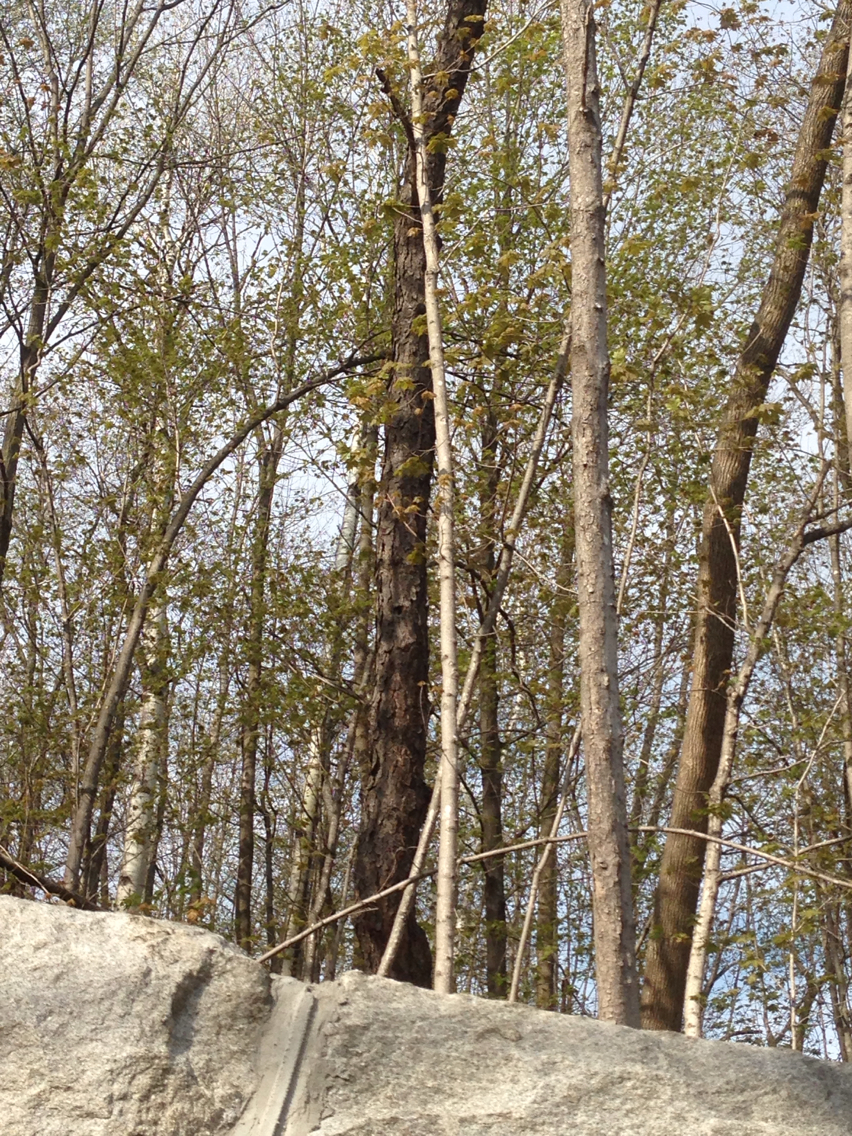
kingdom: Plantae
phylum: Tracheophyta
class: Magnoliopsida
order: Rosales
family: Rosaceae
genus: Prunus
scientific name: Prunus serotina
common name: Black cherry
